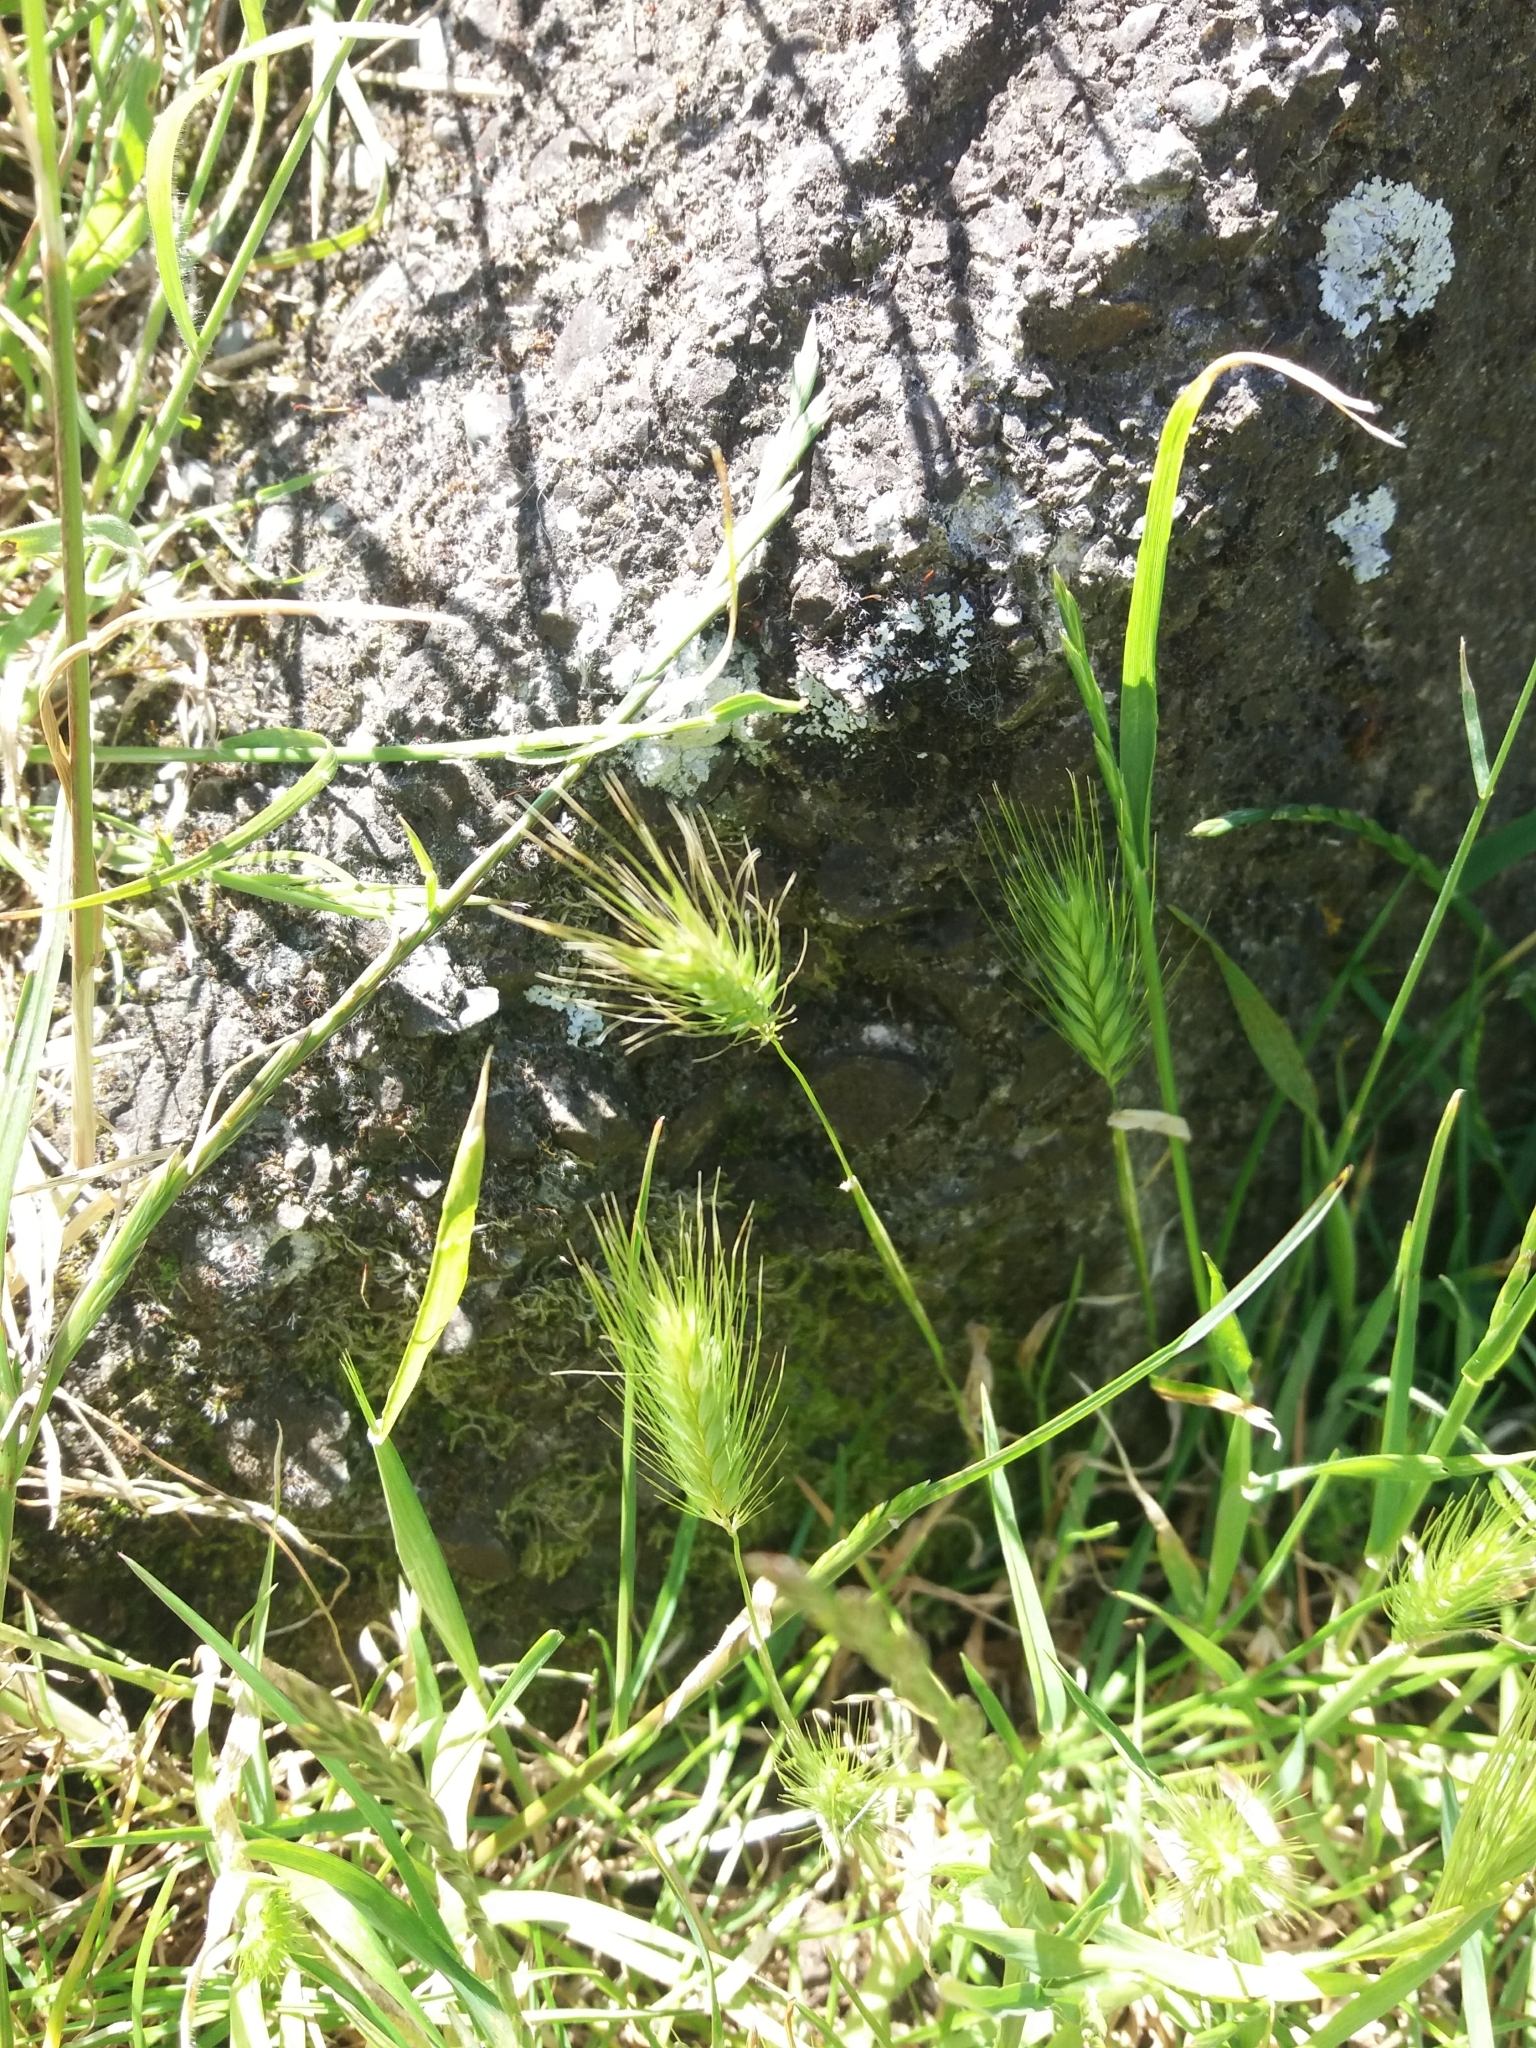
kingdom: Plantae
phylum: Tracheophyta
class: Liliopsida
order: Poales
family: Poaceae
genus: Hordeum
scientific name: Hordeum murinum
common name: Wall barley
